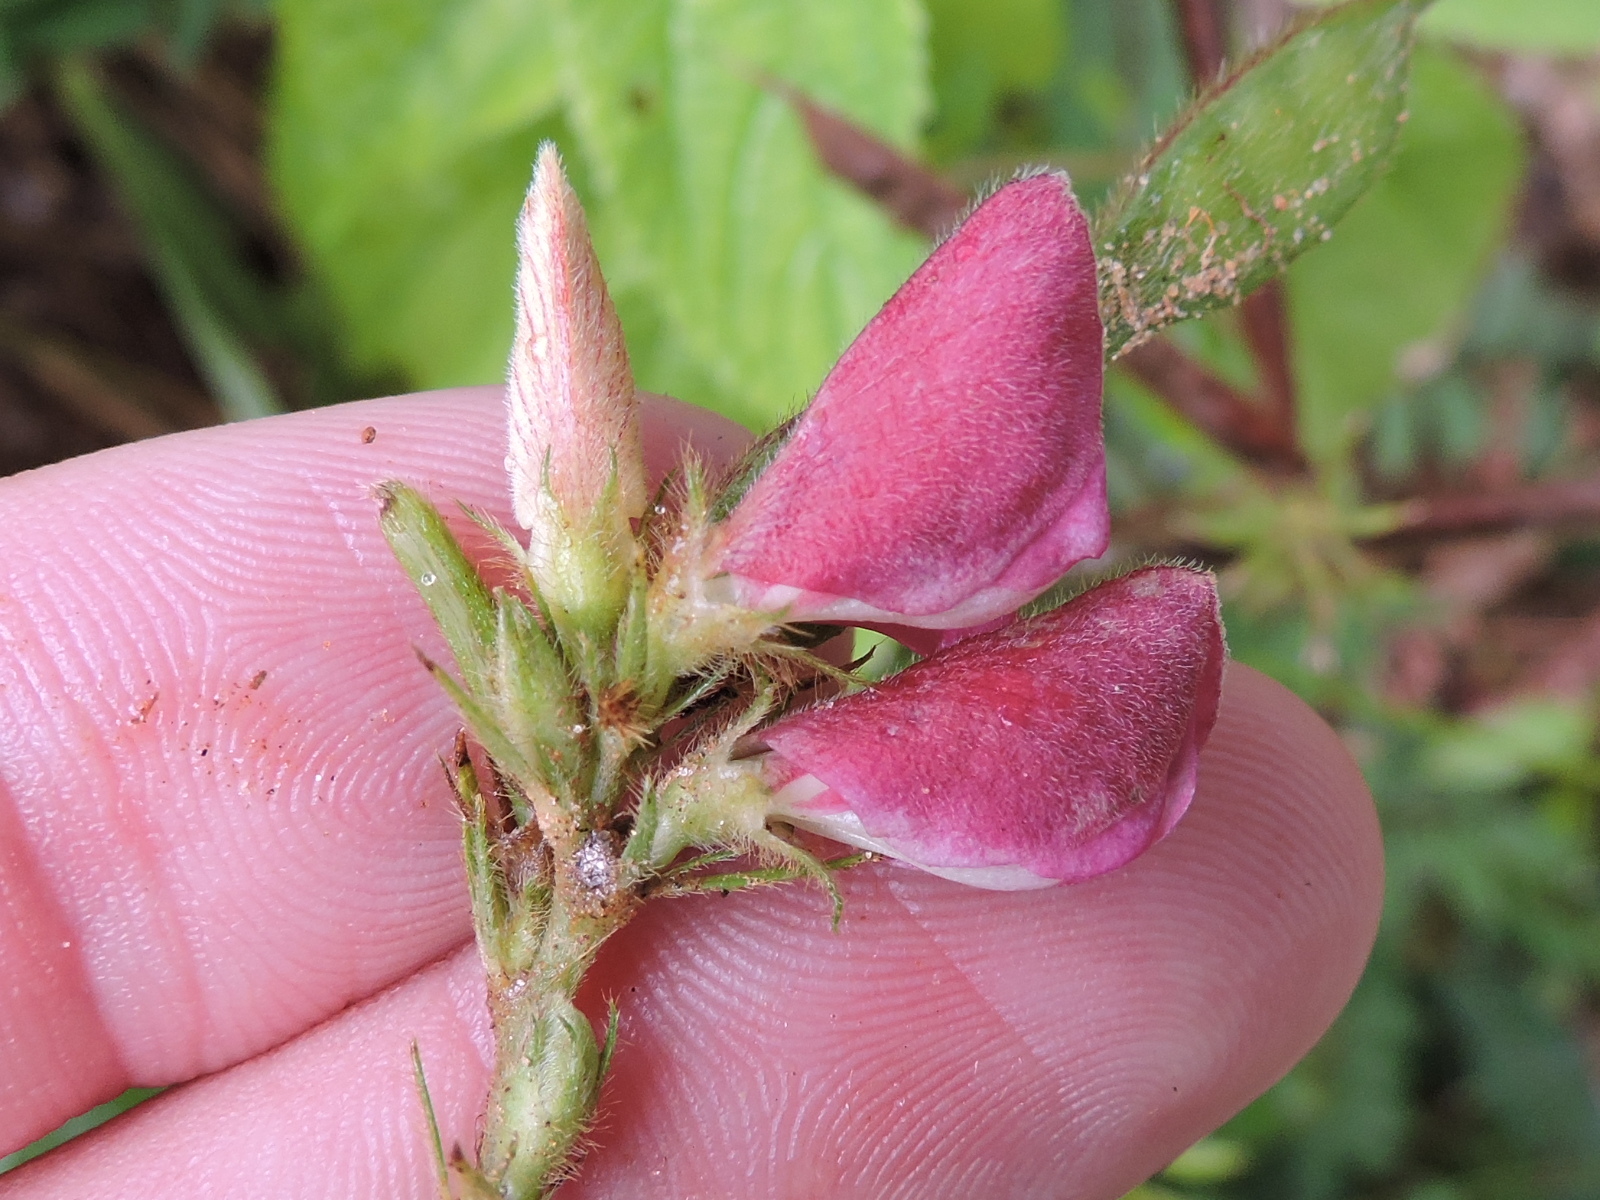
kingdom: Plantae
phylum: Tracheophyta
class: Magnoliopsida
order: Fabales
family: Fabaceae
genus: Tephrosia
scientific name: Tephrosia onobrychoides
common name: Multi-bloom hoary-pea
